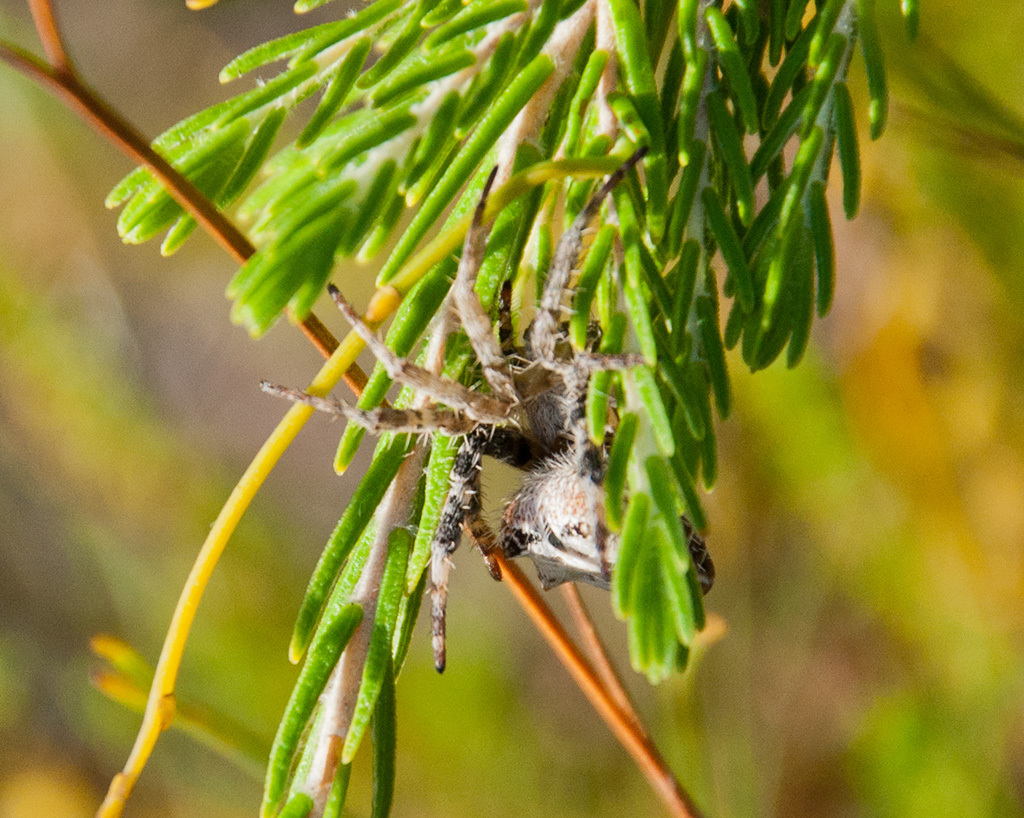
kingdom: Animalia
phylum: Arthropoda
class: Arachnida
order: Araneae
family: Araneidae
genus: Cyrtophora
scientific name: Cyrtophora citricola
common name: Orb weavers
